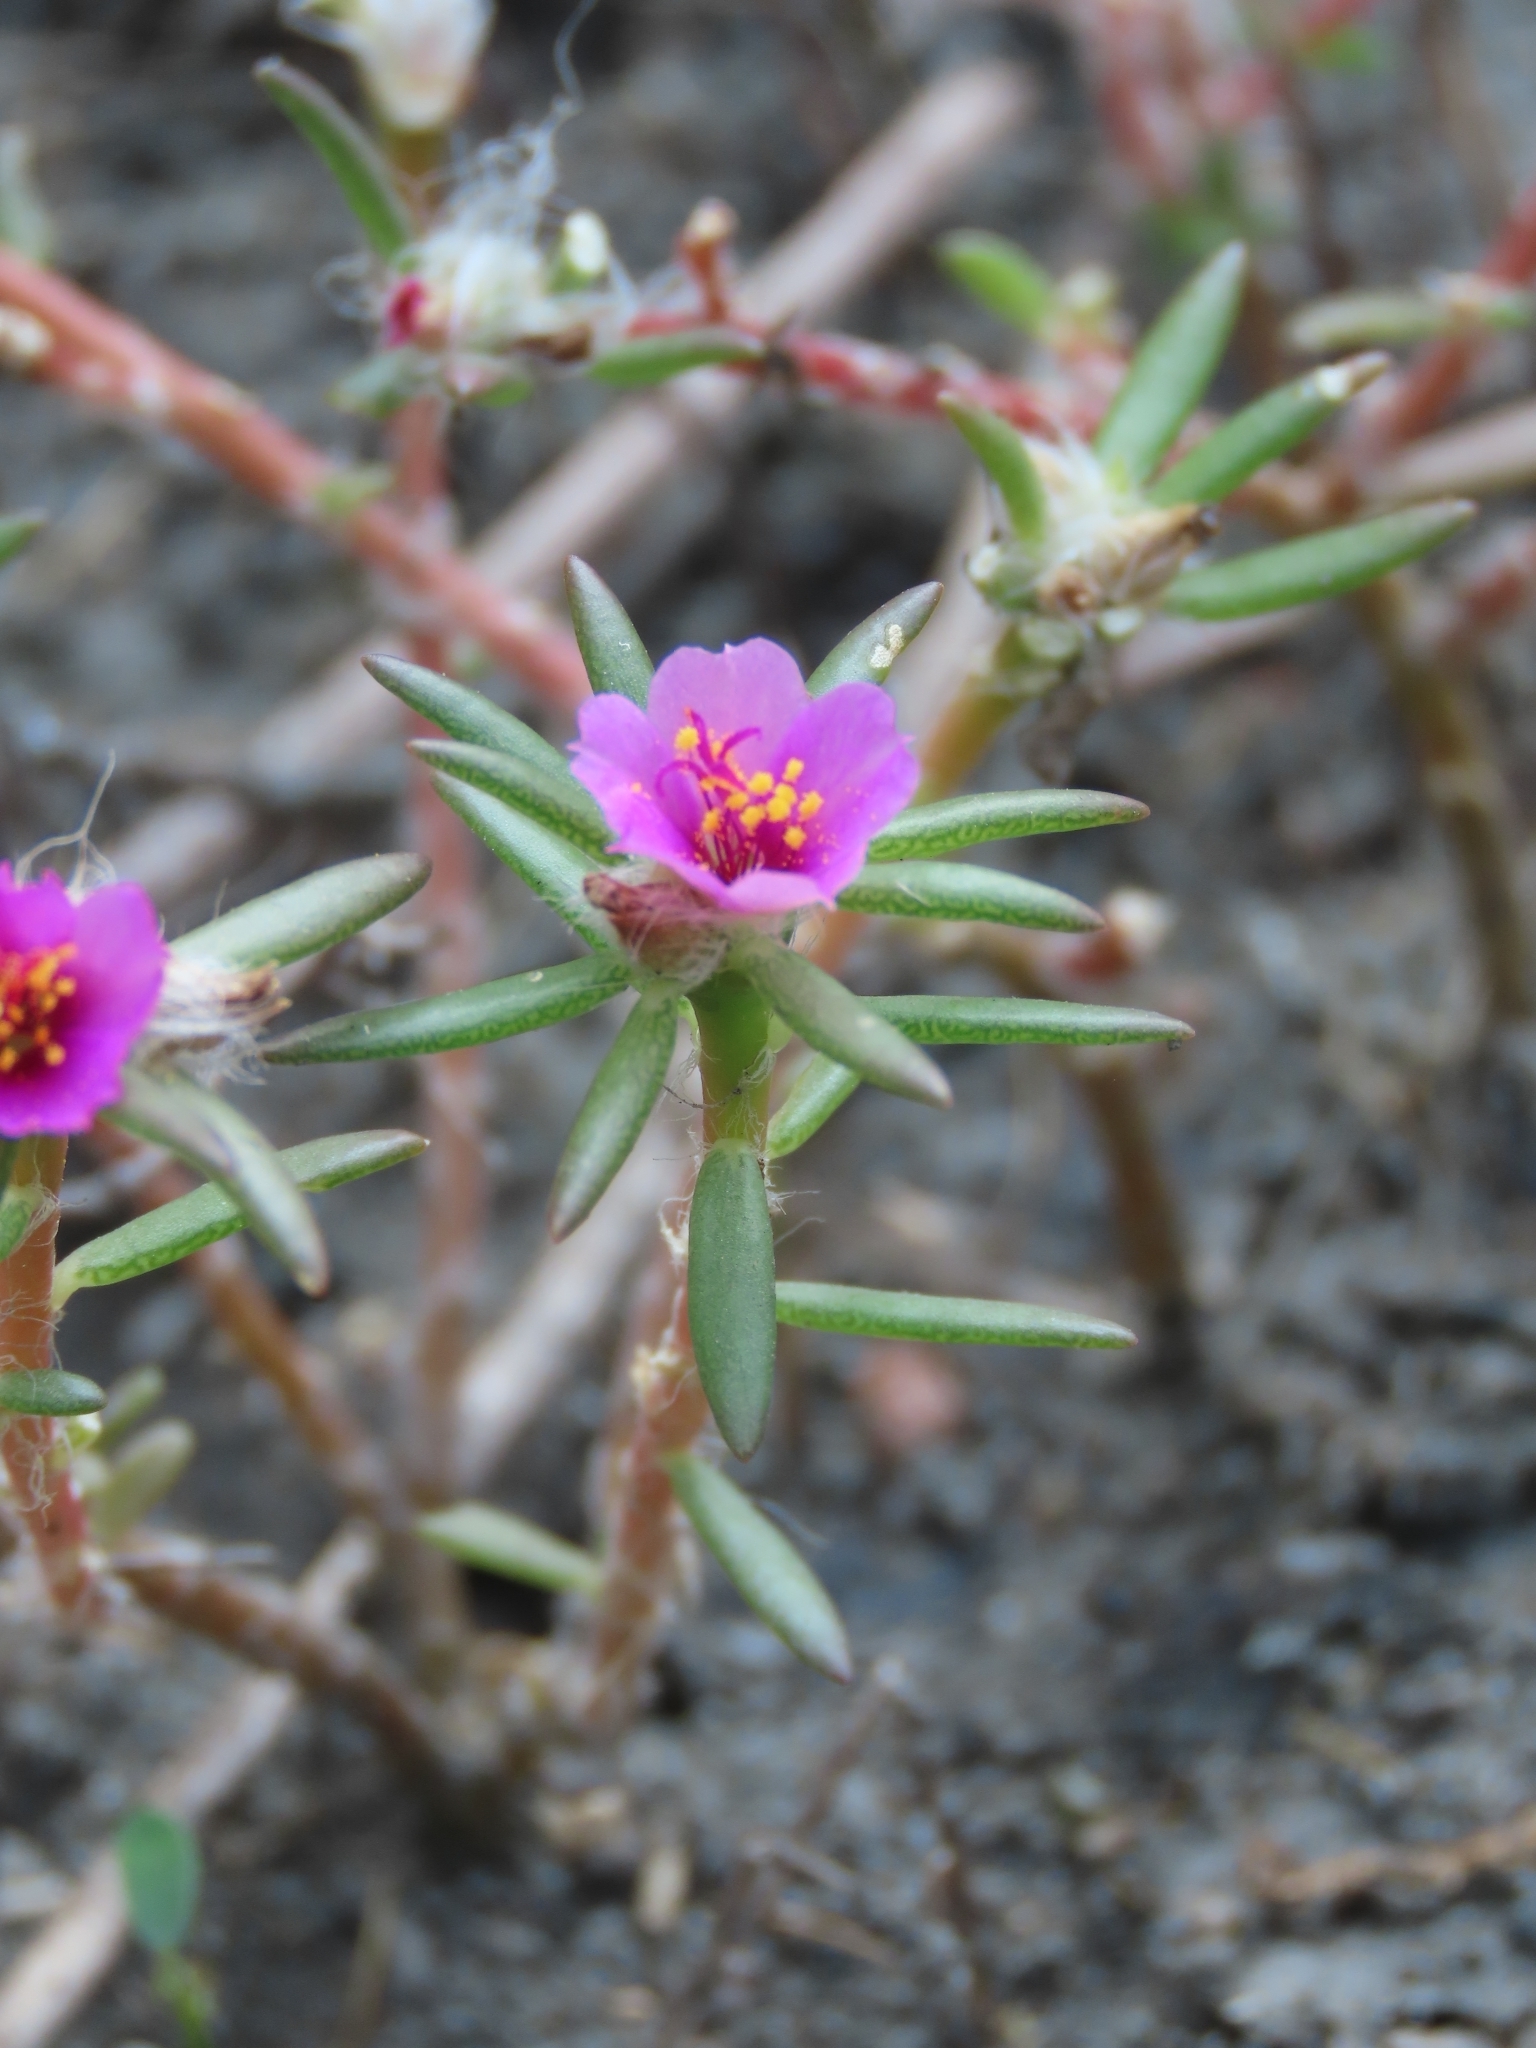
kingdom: Plantae
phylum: Tracheophyta
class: Magnoliopsida
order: Caryophyllales
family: Portulacaceae
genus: Portulaca
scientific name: Portulaca pilosa
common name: Kiss me quick
